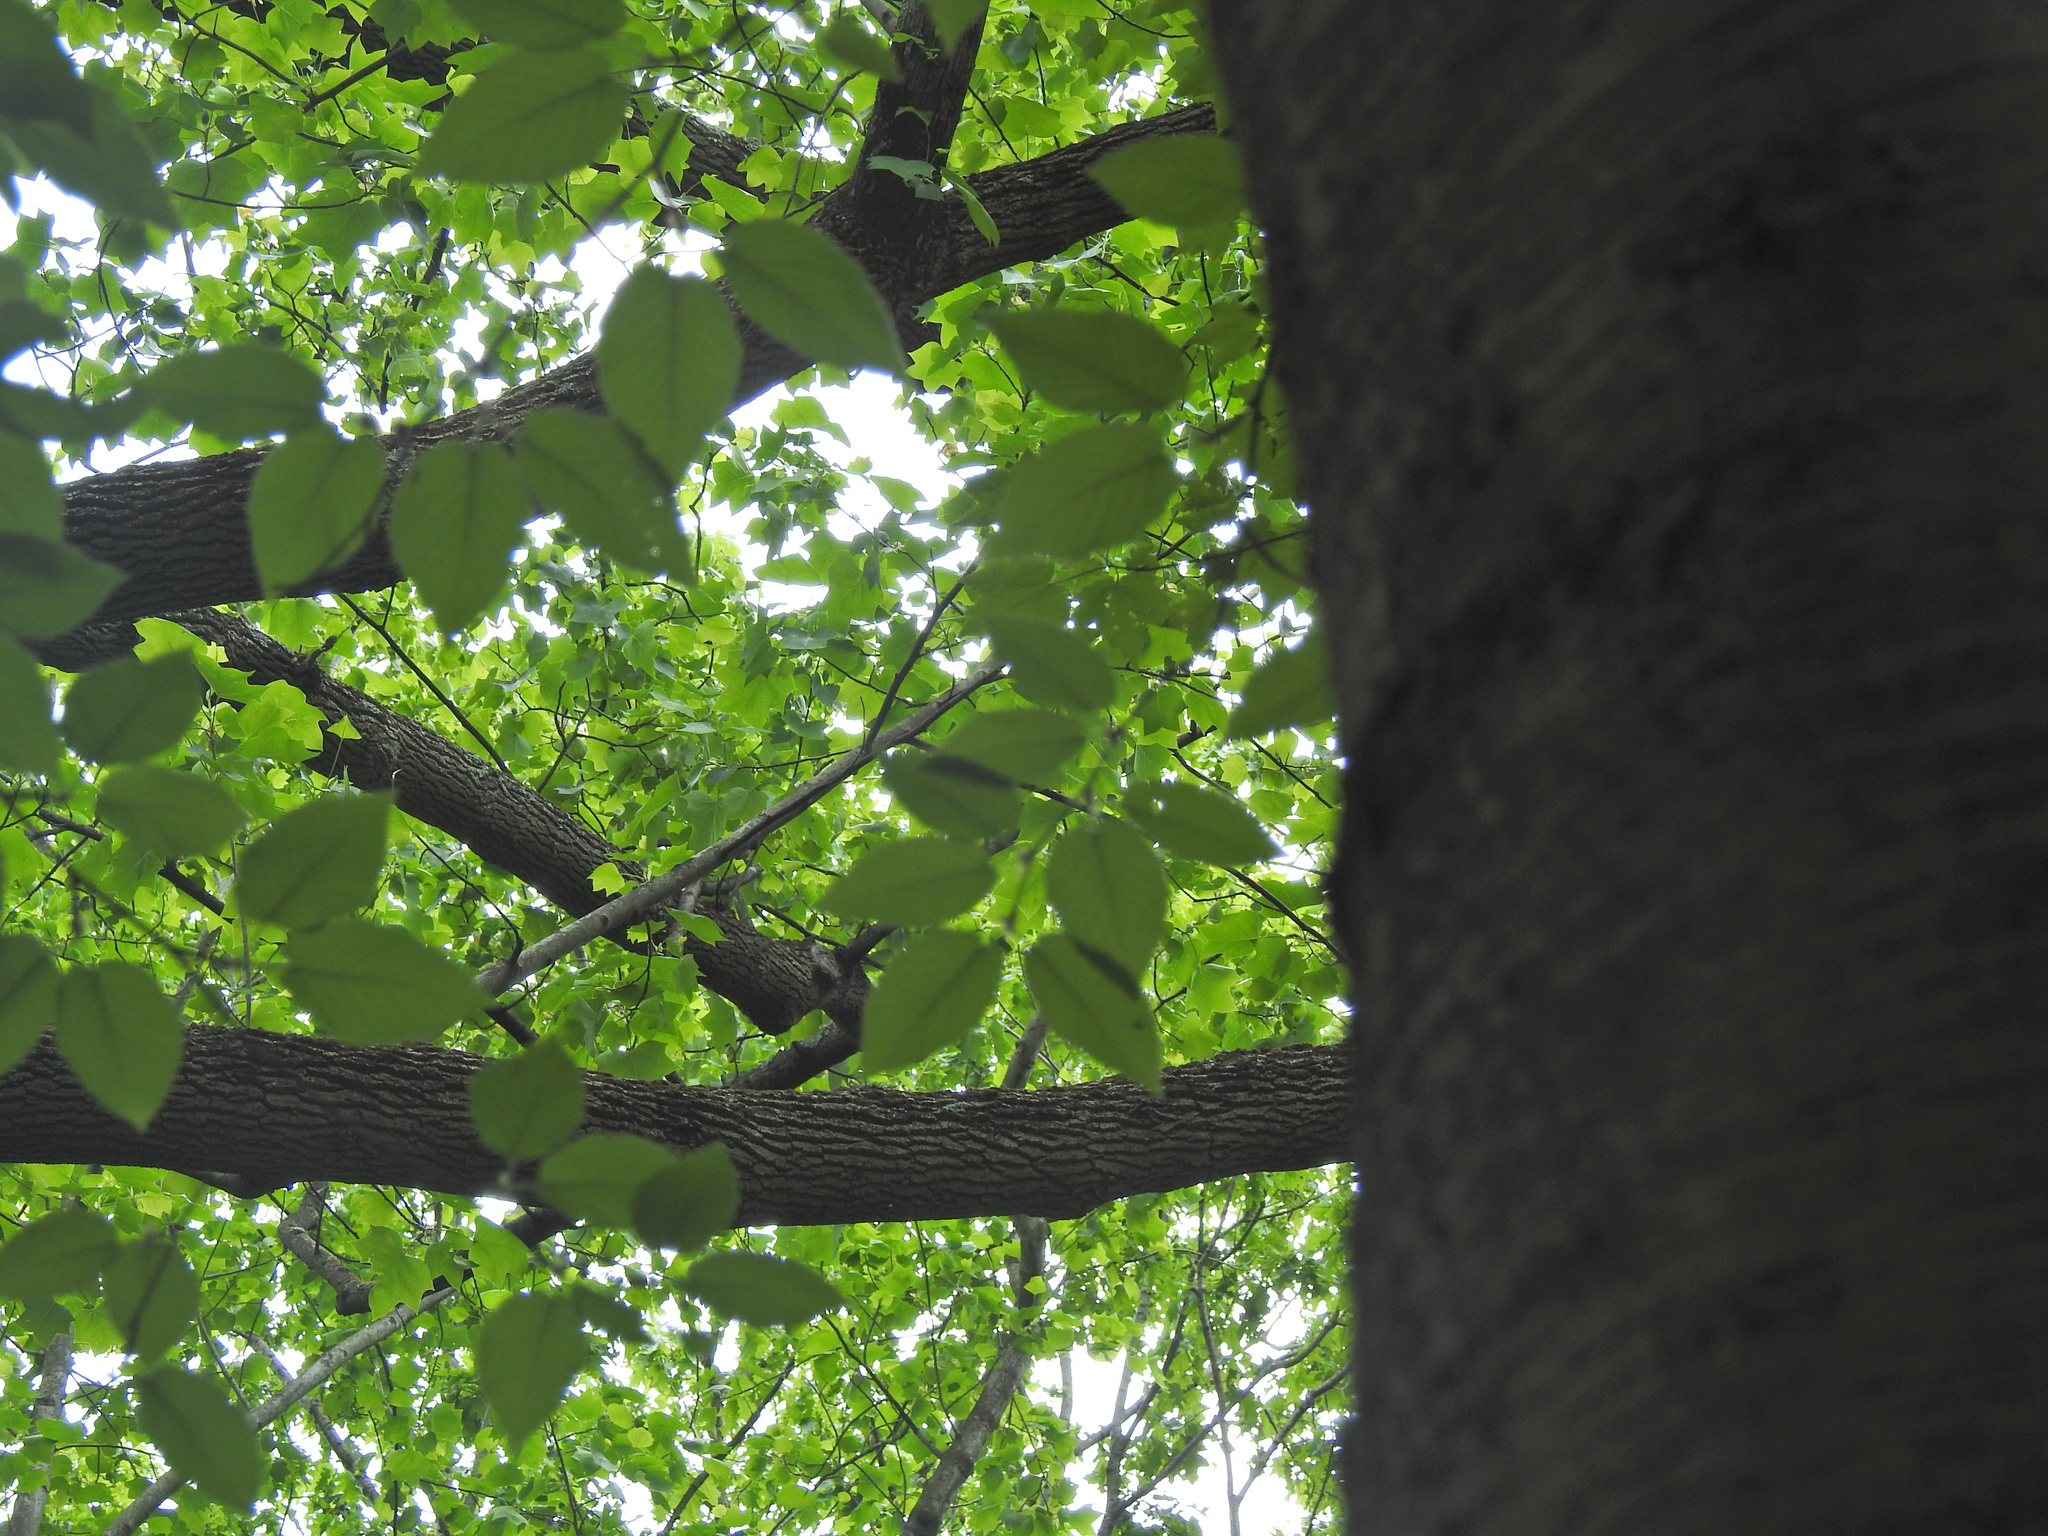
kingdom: Plantae
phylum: Tracheophyta
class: Magnoliopsida
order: Fagales
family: Betulaceae
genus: Betula
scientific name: Betula lenta
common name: Black birch
